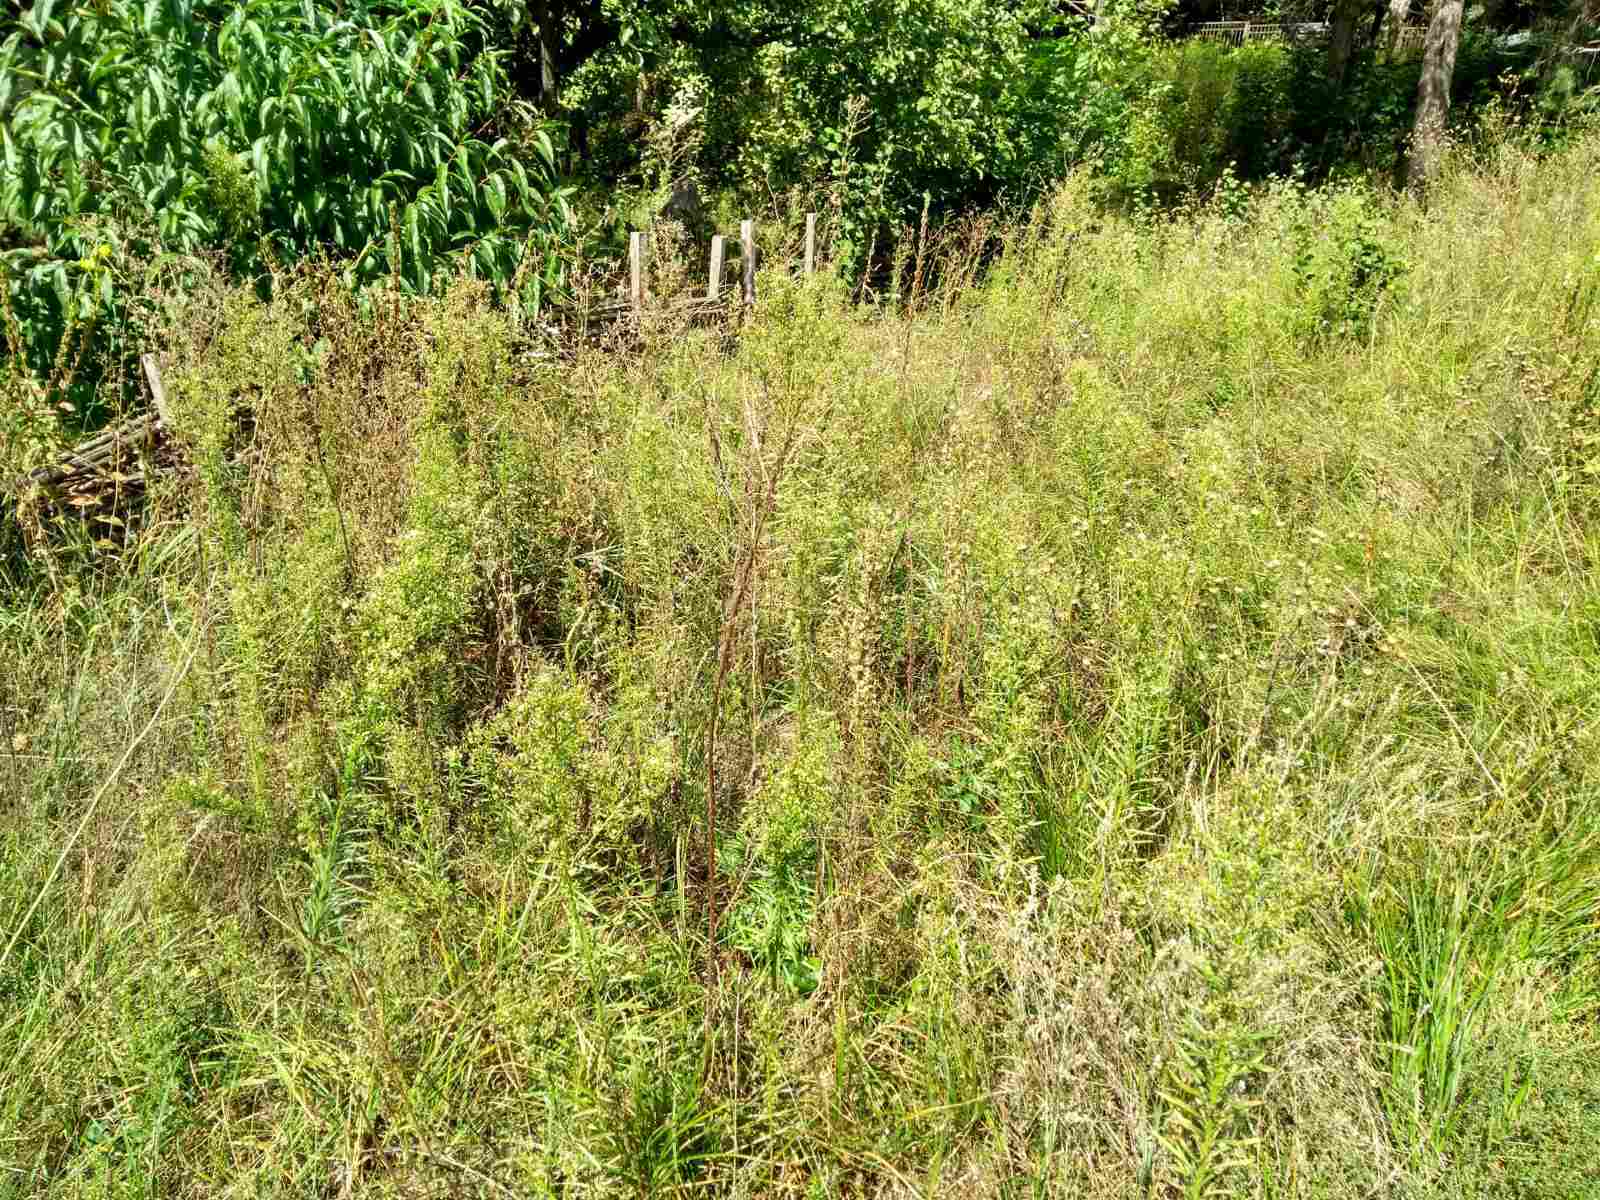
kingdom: Plantae
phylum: Tracheophyta
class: Magnoliopsida
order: Asterales
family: Asteraceae
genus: Erigeron
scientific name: Erigeron canadensis
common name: Canadian fleabane
